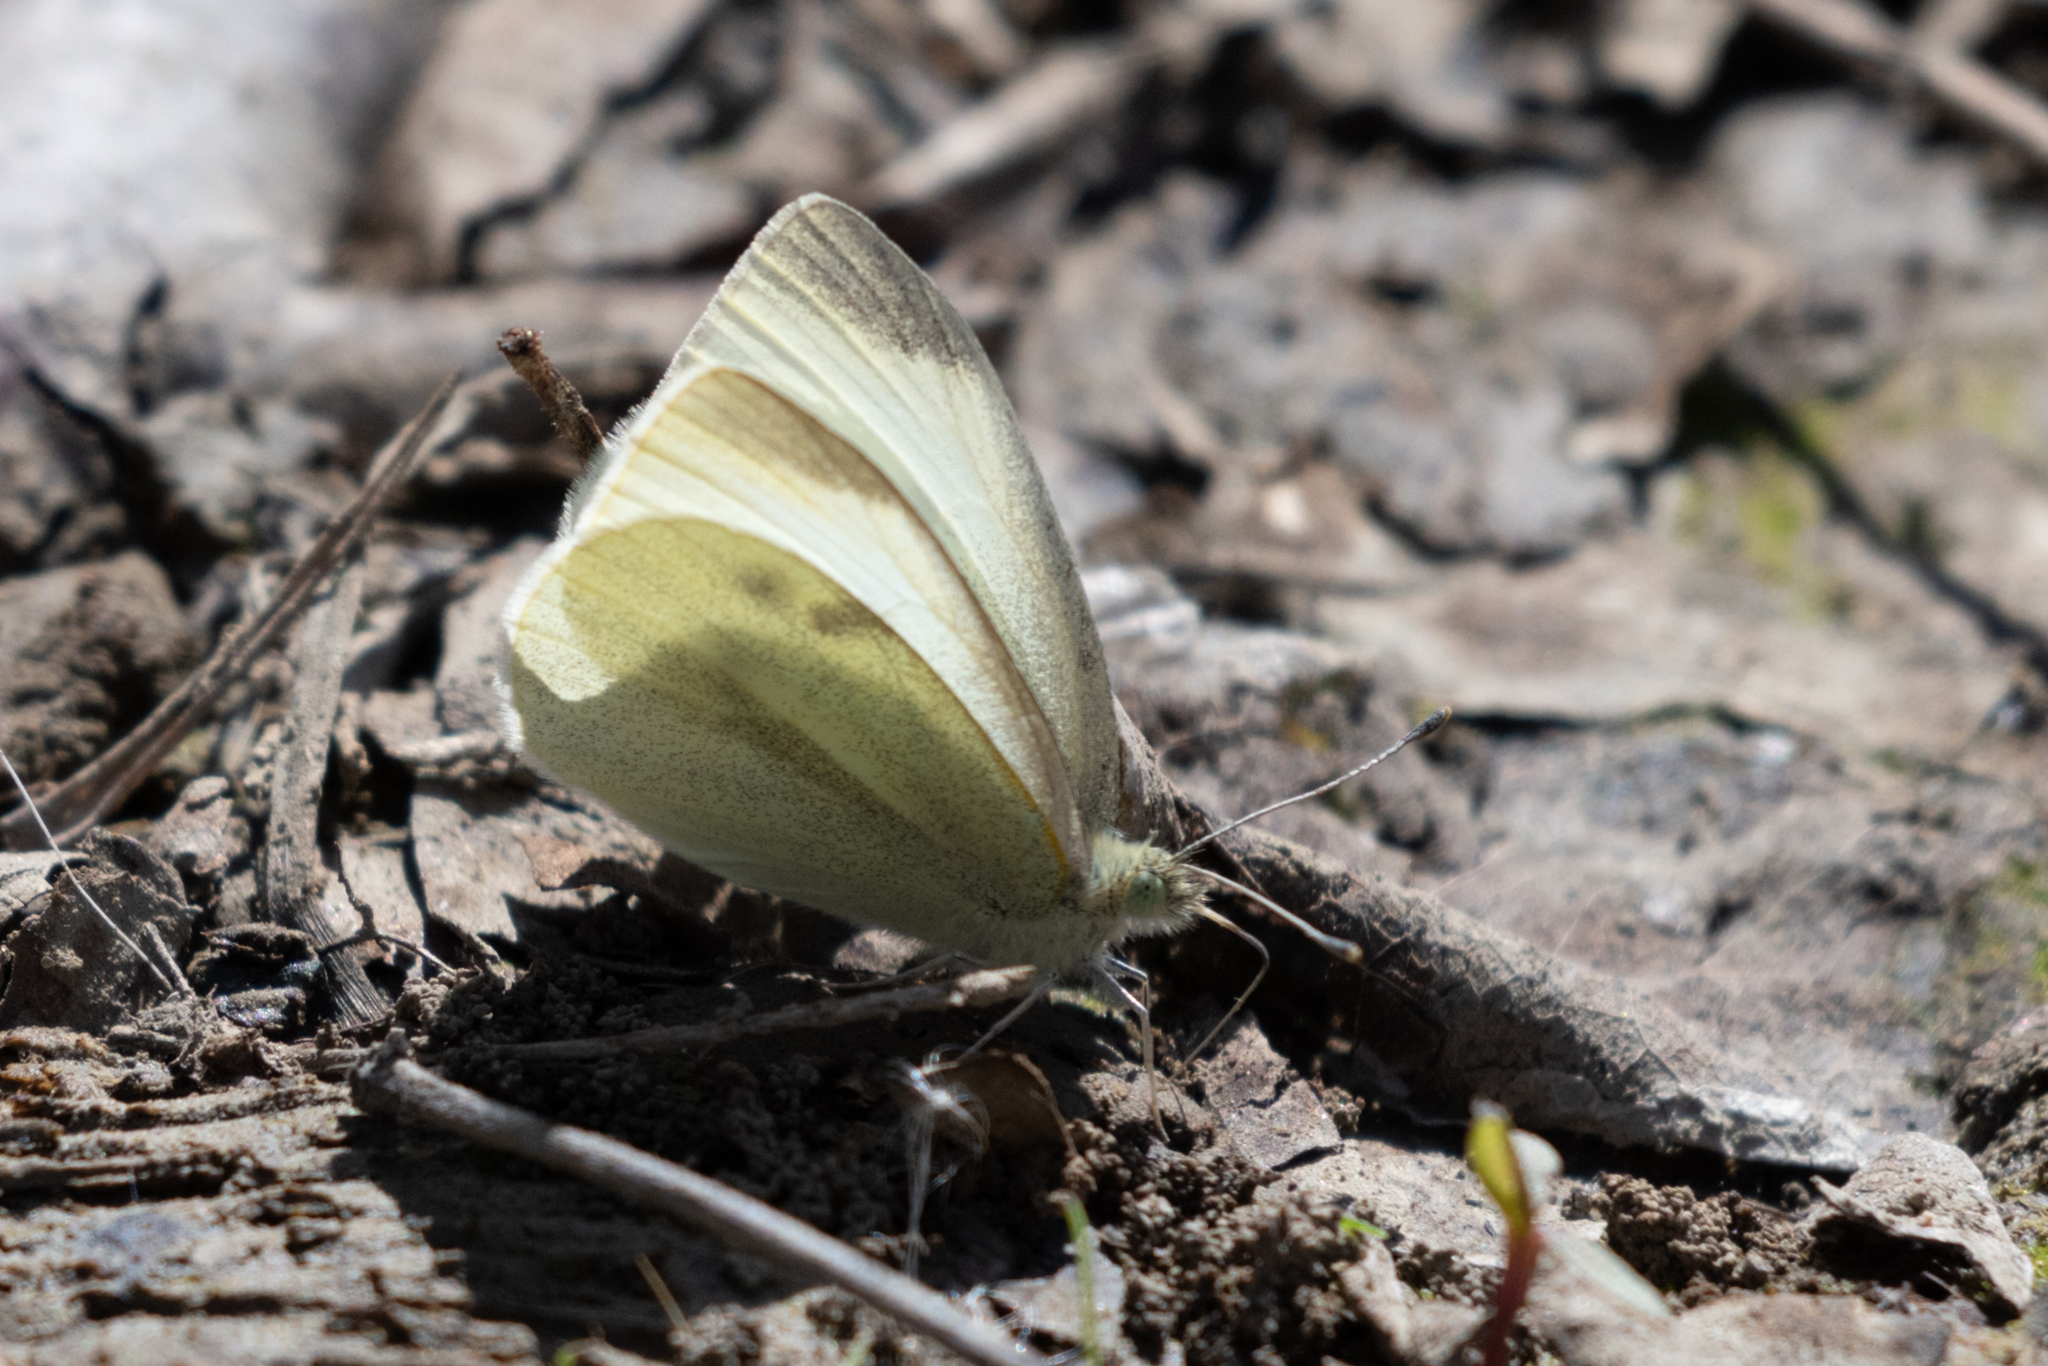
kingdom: Animalia
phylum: Arthropoda
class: Insecta
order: Lepidoptera
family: Pieridae
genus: Pieris
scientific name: Pieris rapae
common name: Small white
